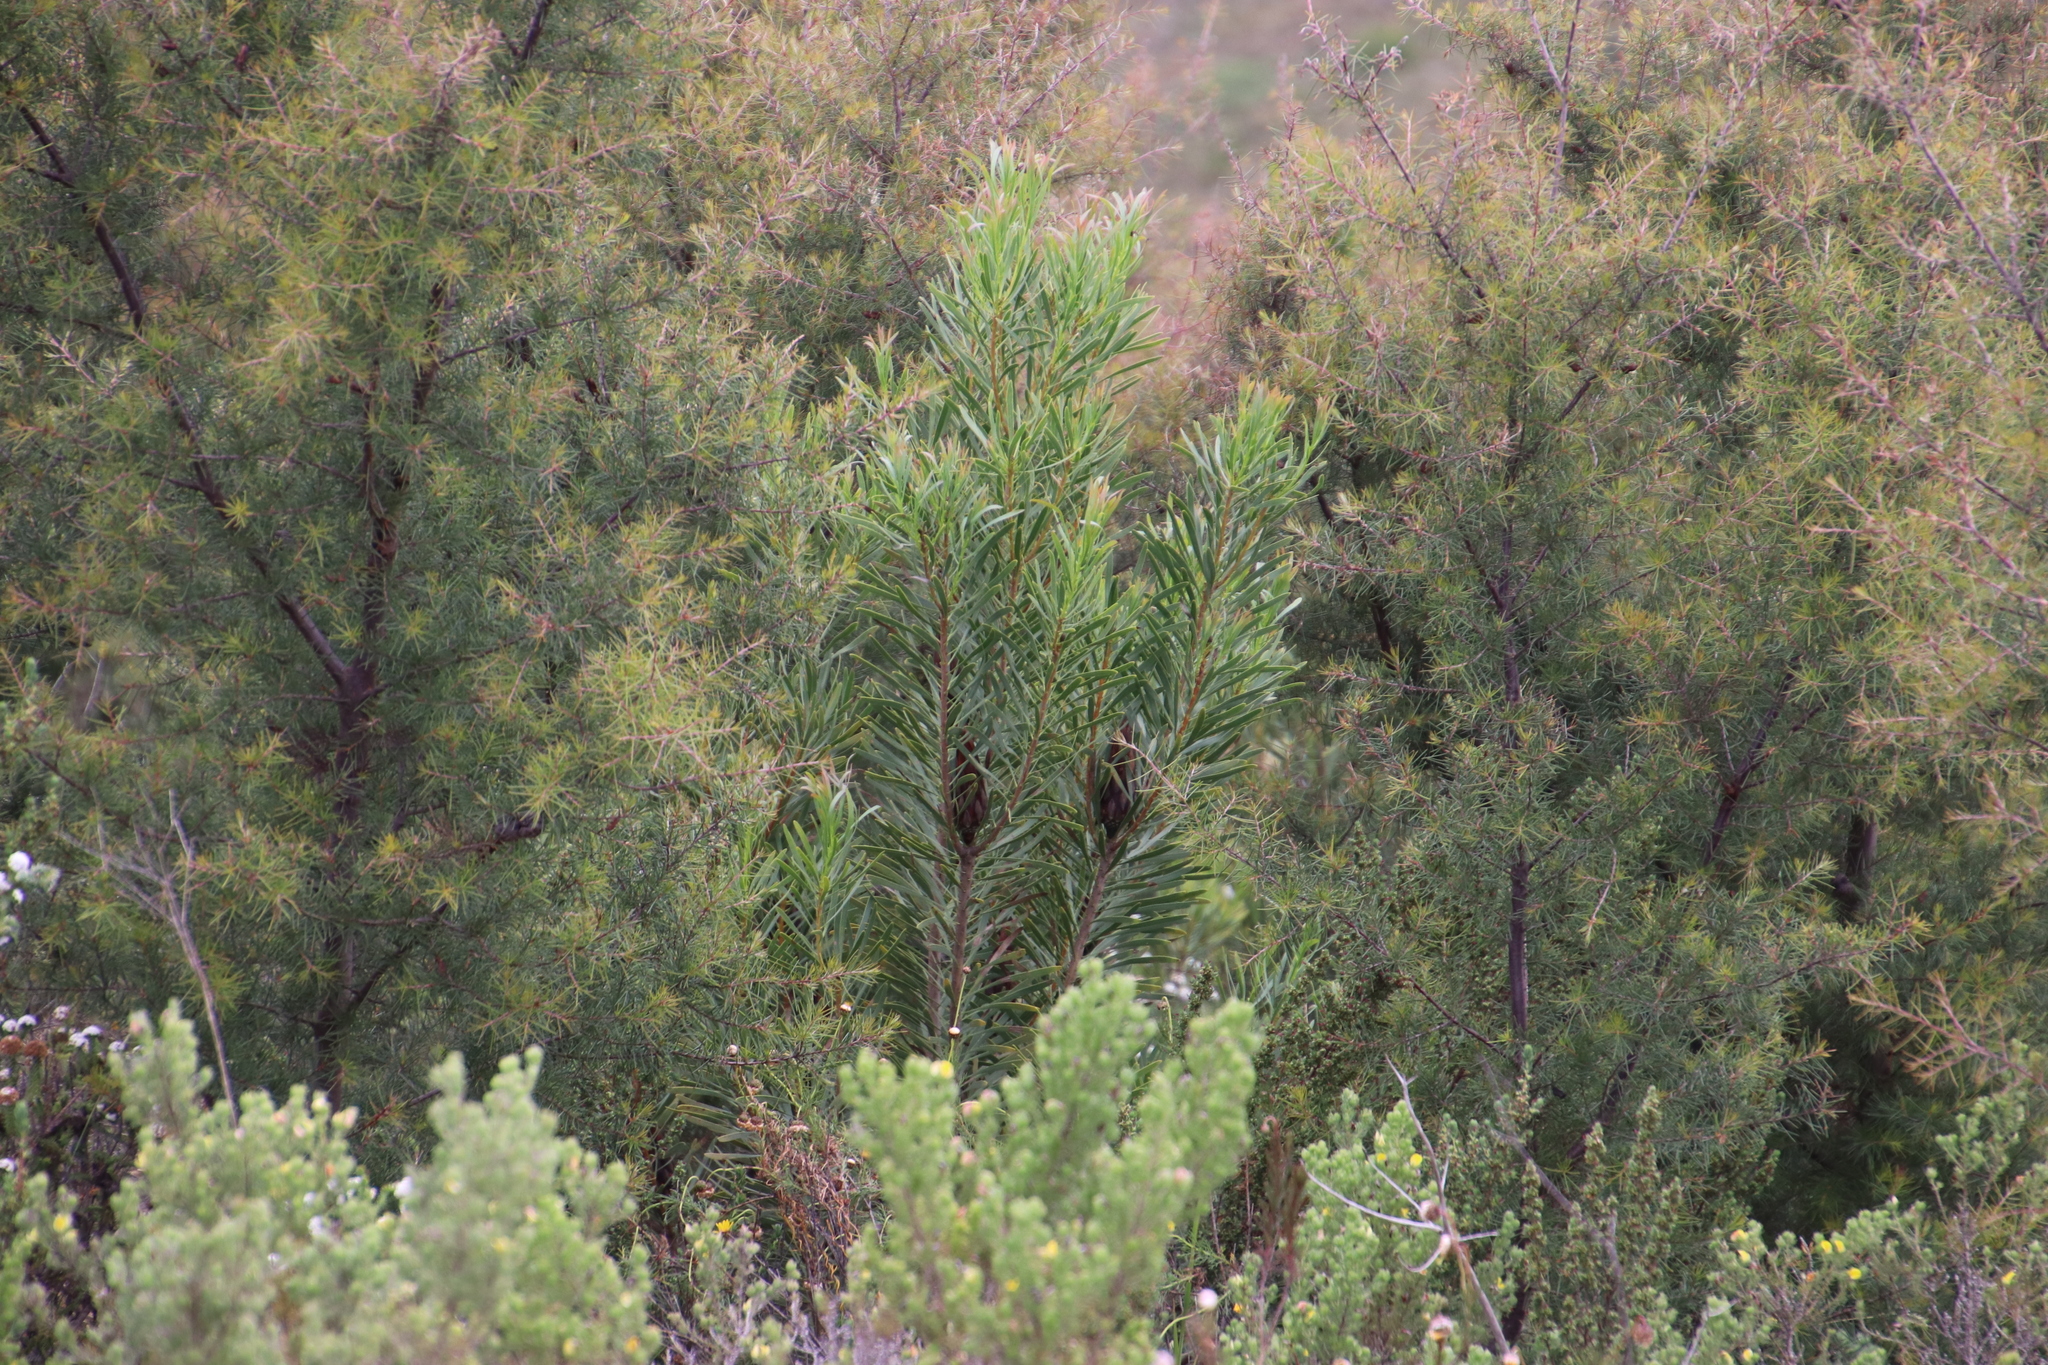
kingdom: Plantae
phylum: Tracheophyta
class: Magnoliopsida
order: Proteales
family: Proteaceae
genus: Protea
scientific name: Protea repens
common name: Sugarbush
